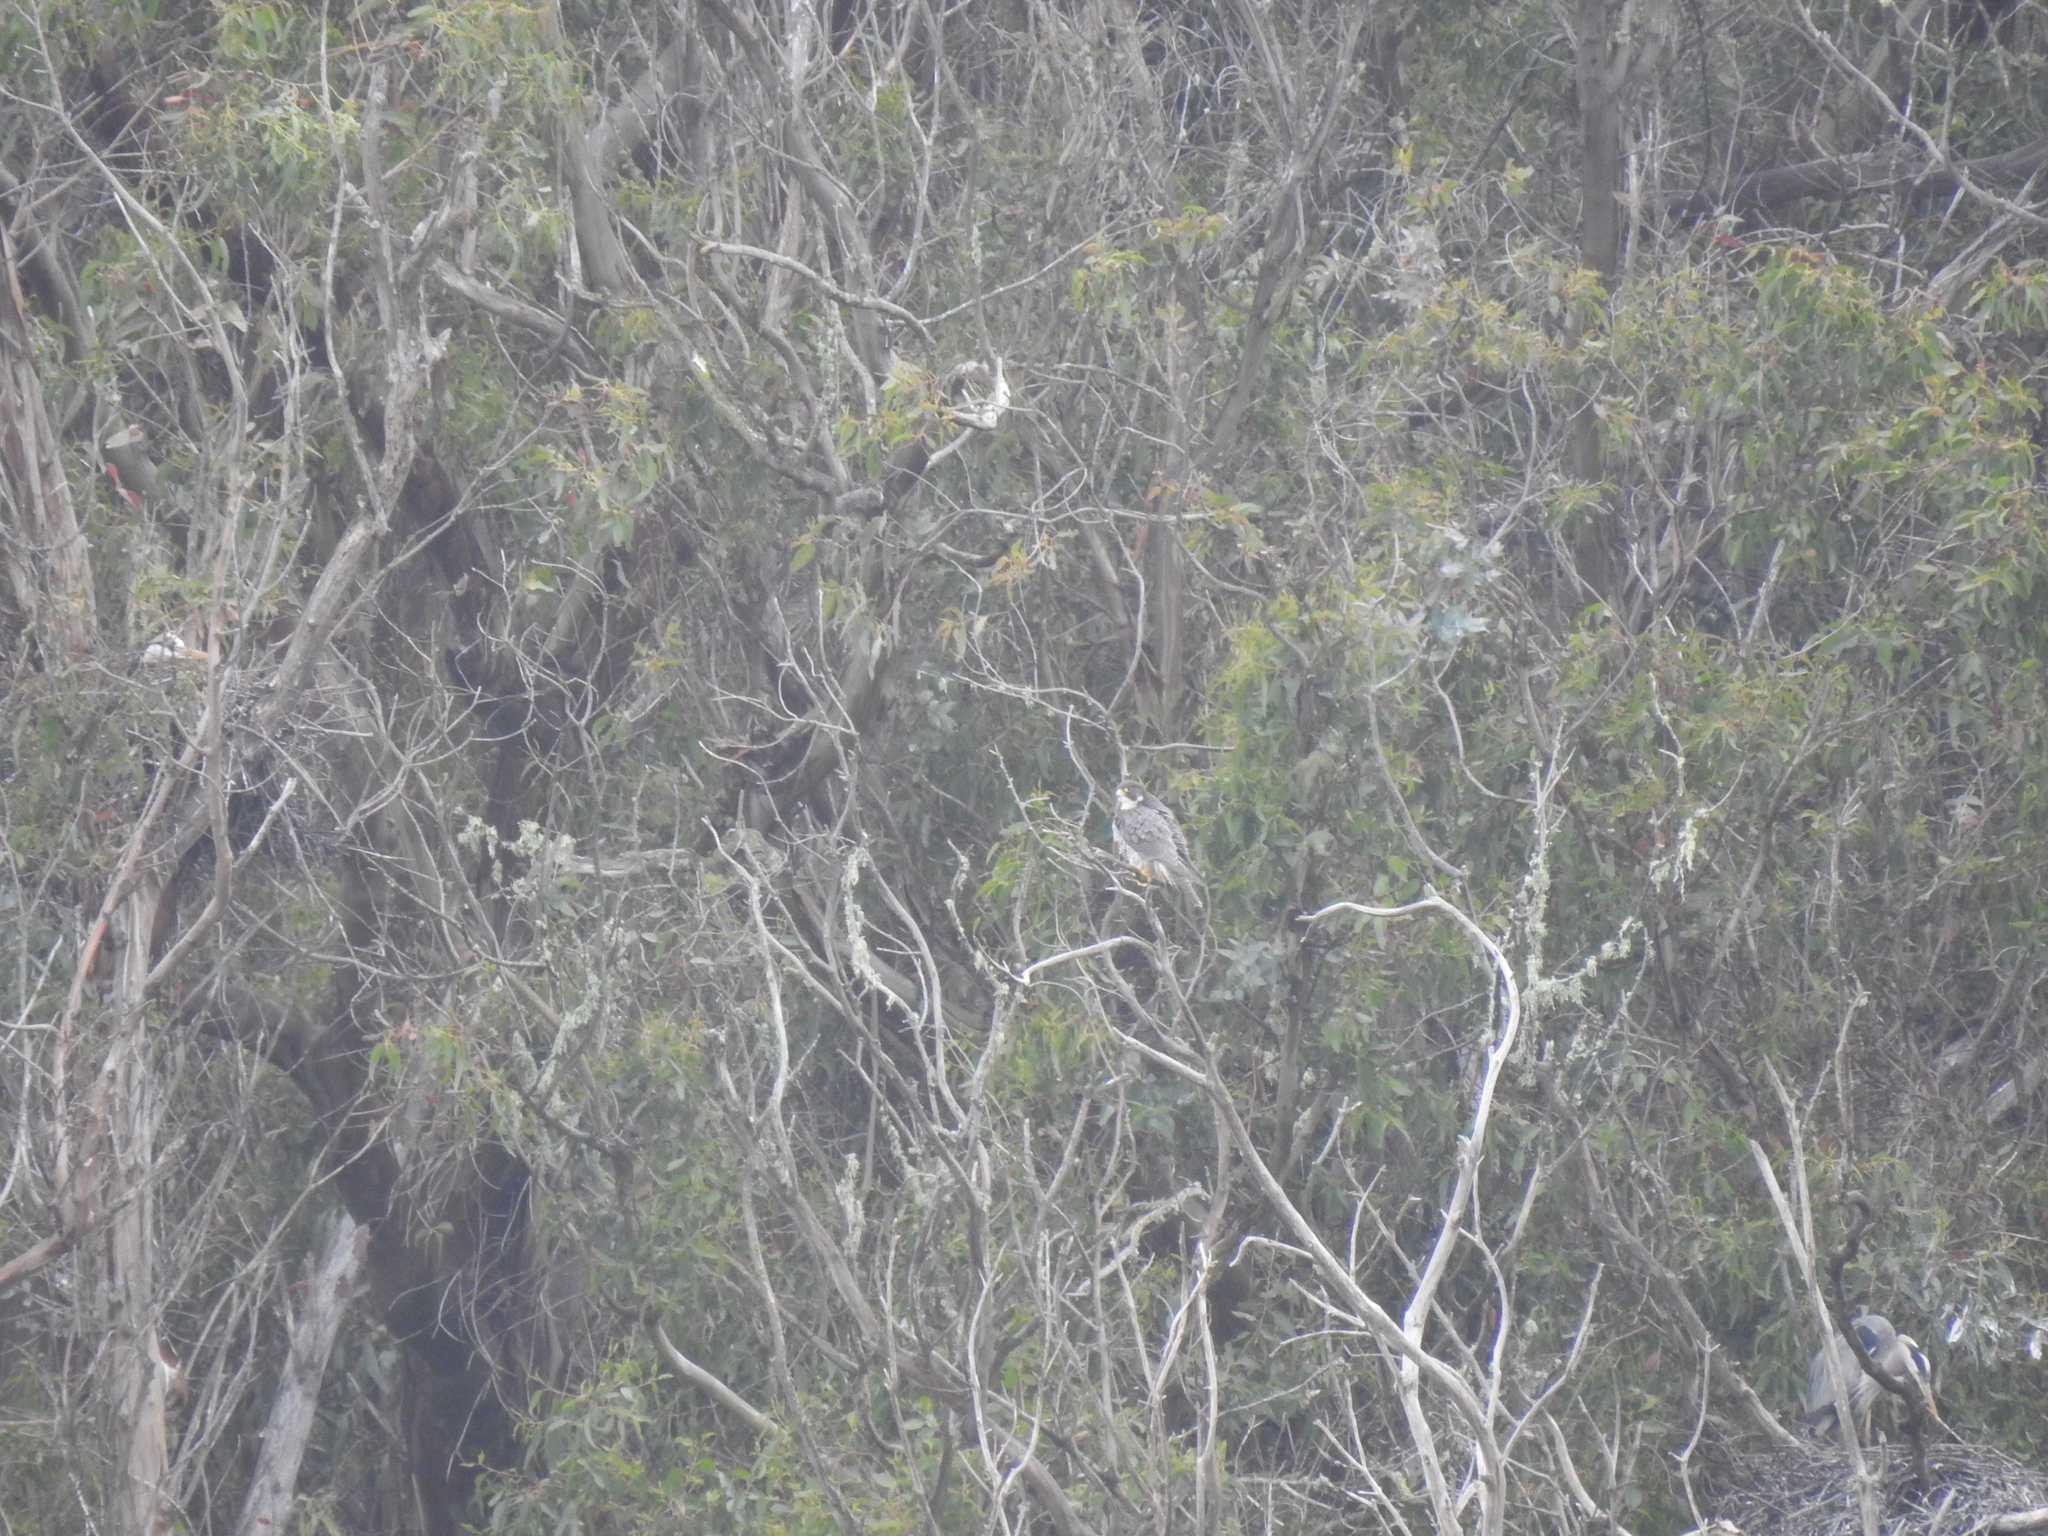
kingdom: Animalia
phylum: Chordata
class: Aves
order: Falconiformes
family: Falconidae
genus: Falco
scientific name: Falco peregrinus
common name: Peregrine falcon
